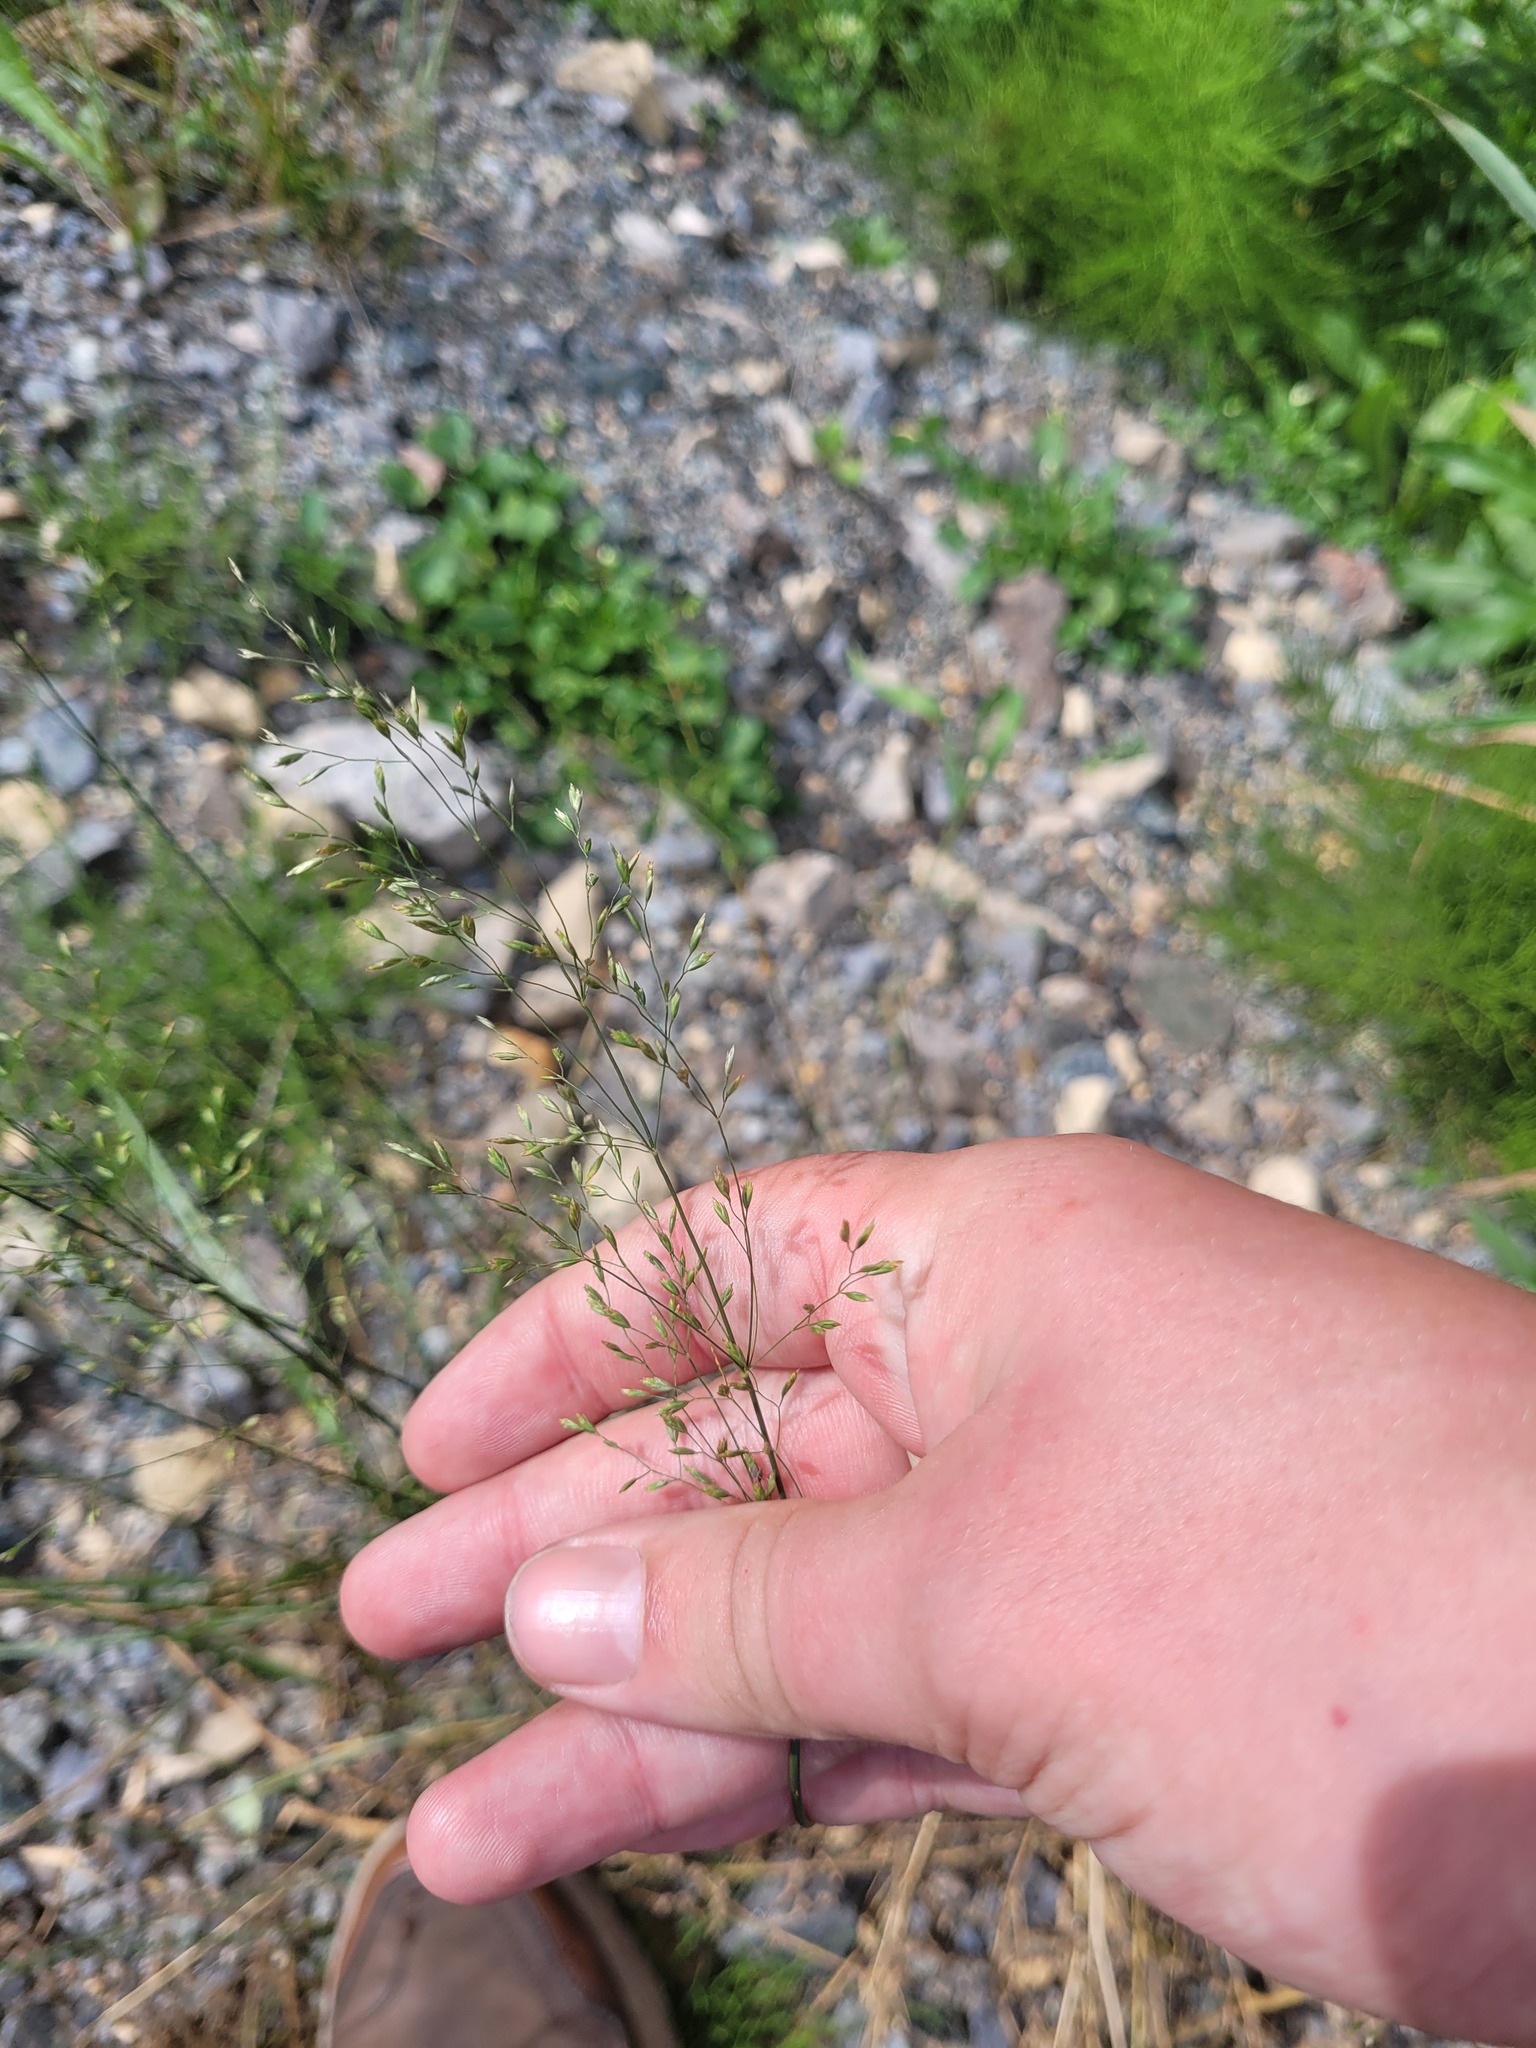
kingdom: Plantae
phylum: Tracheophyta
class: Liliopsida
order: Poales
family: Poaceae
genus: Poa
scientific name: Poa palustris
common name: Swamp meadow-grass
